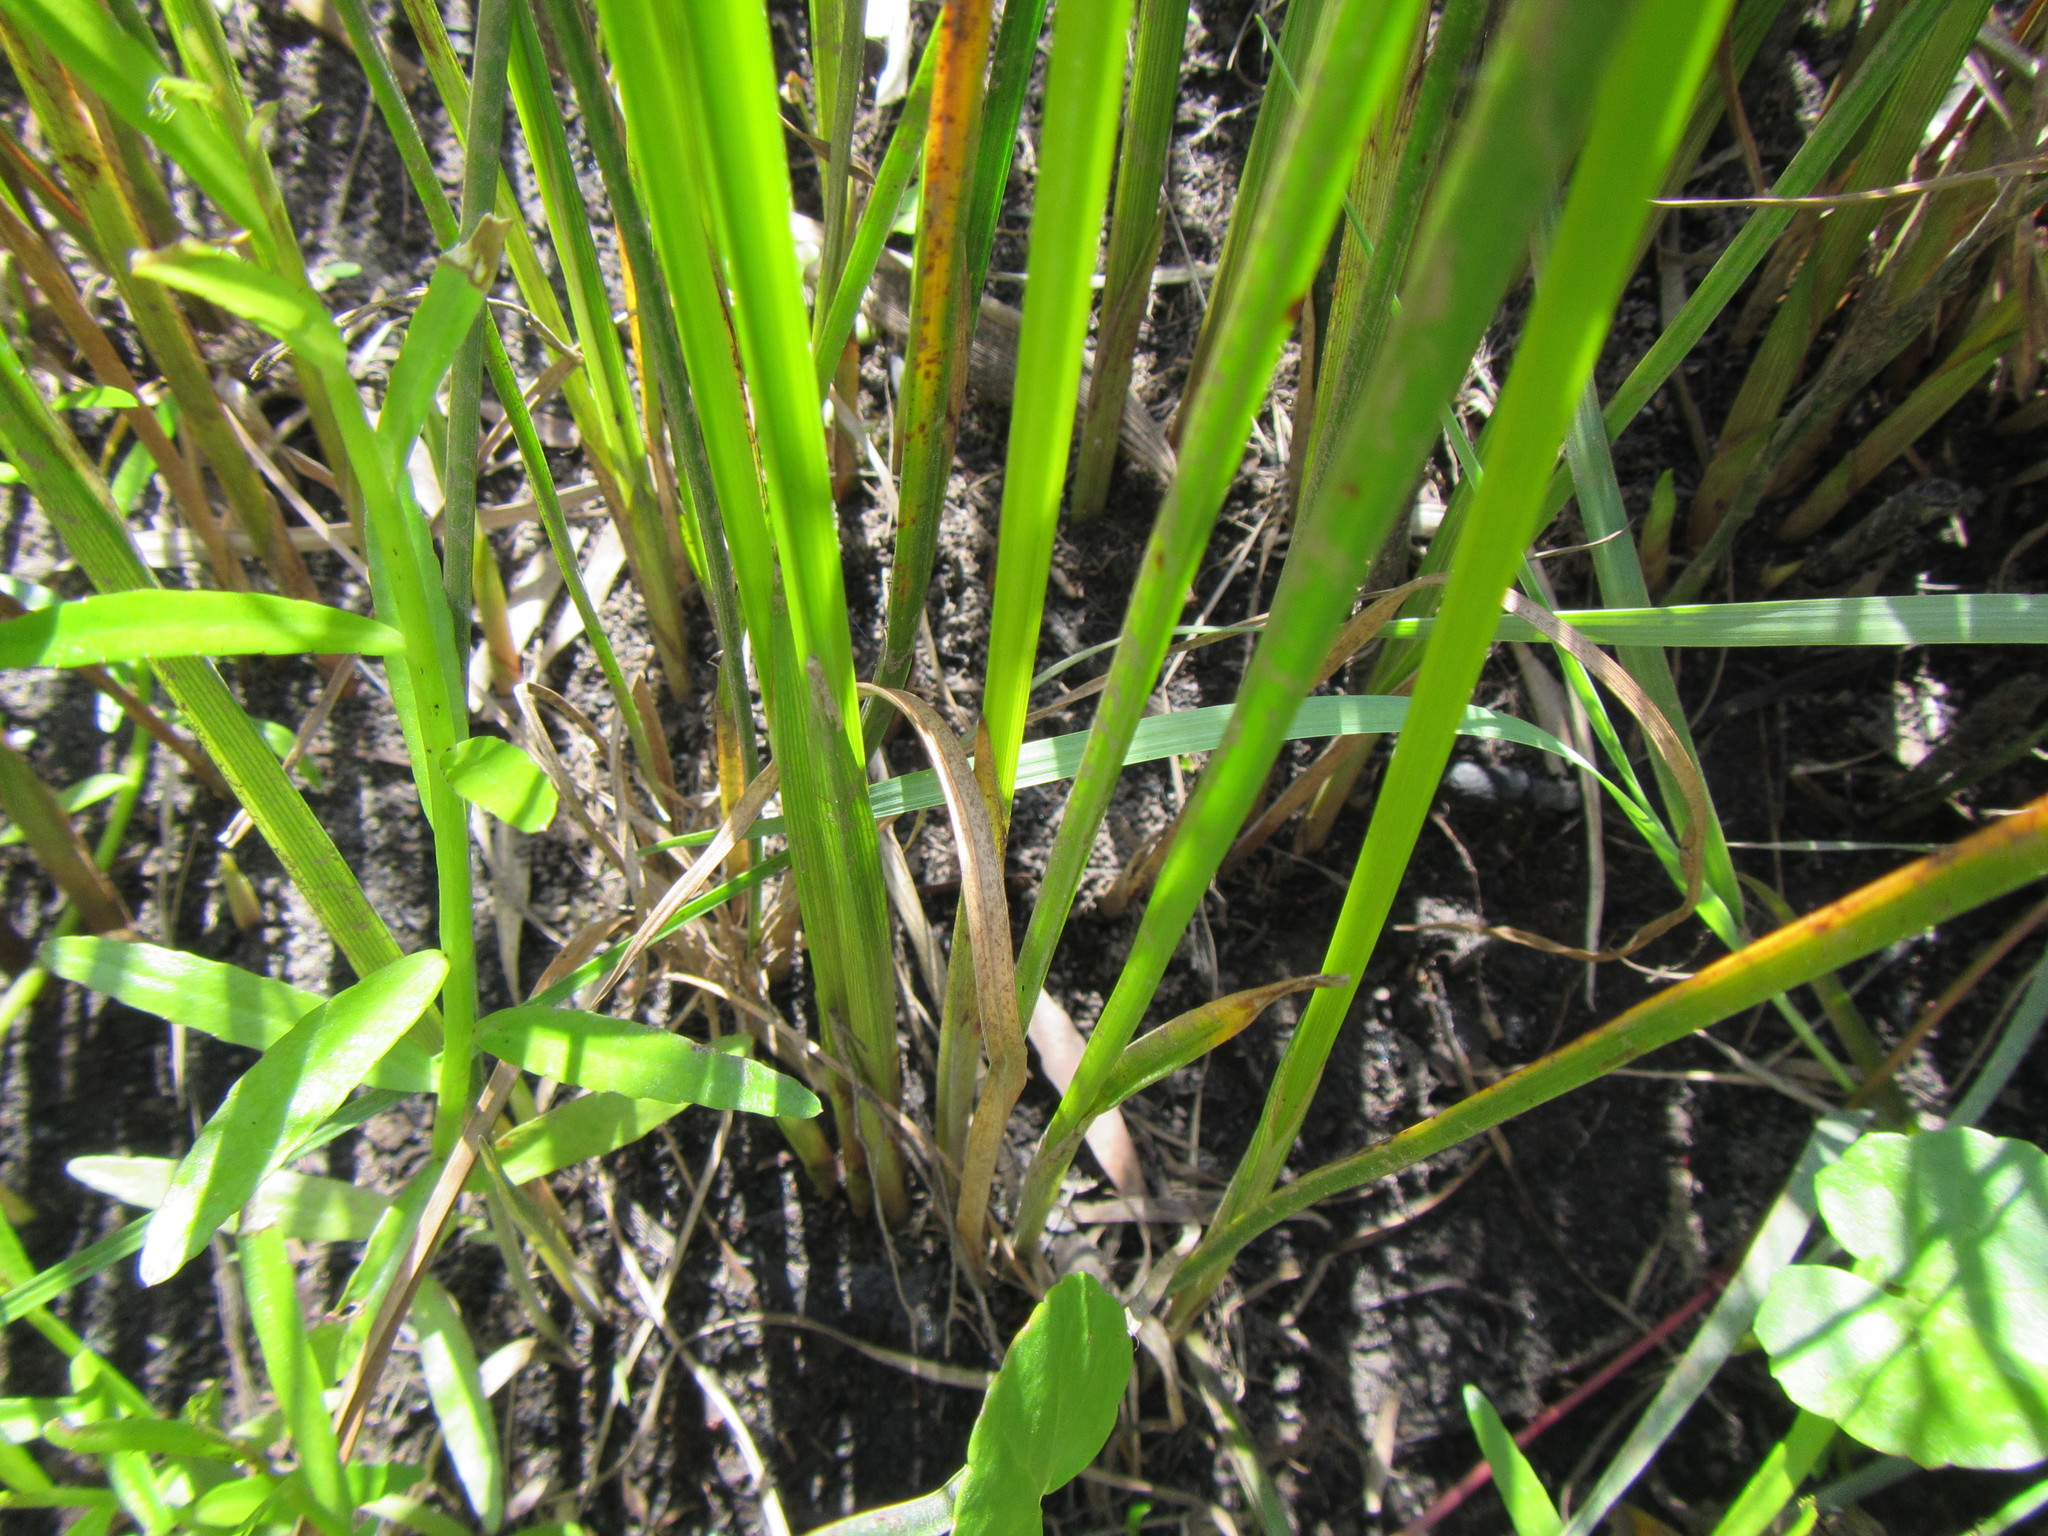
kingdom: Plantae
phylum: Tracheophyta
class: Liliopsida
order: Poales
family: Cyperaceae
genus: Cyperus
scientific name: Cyperus denudatus
